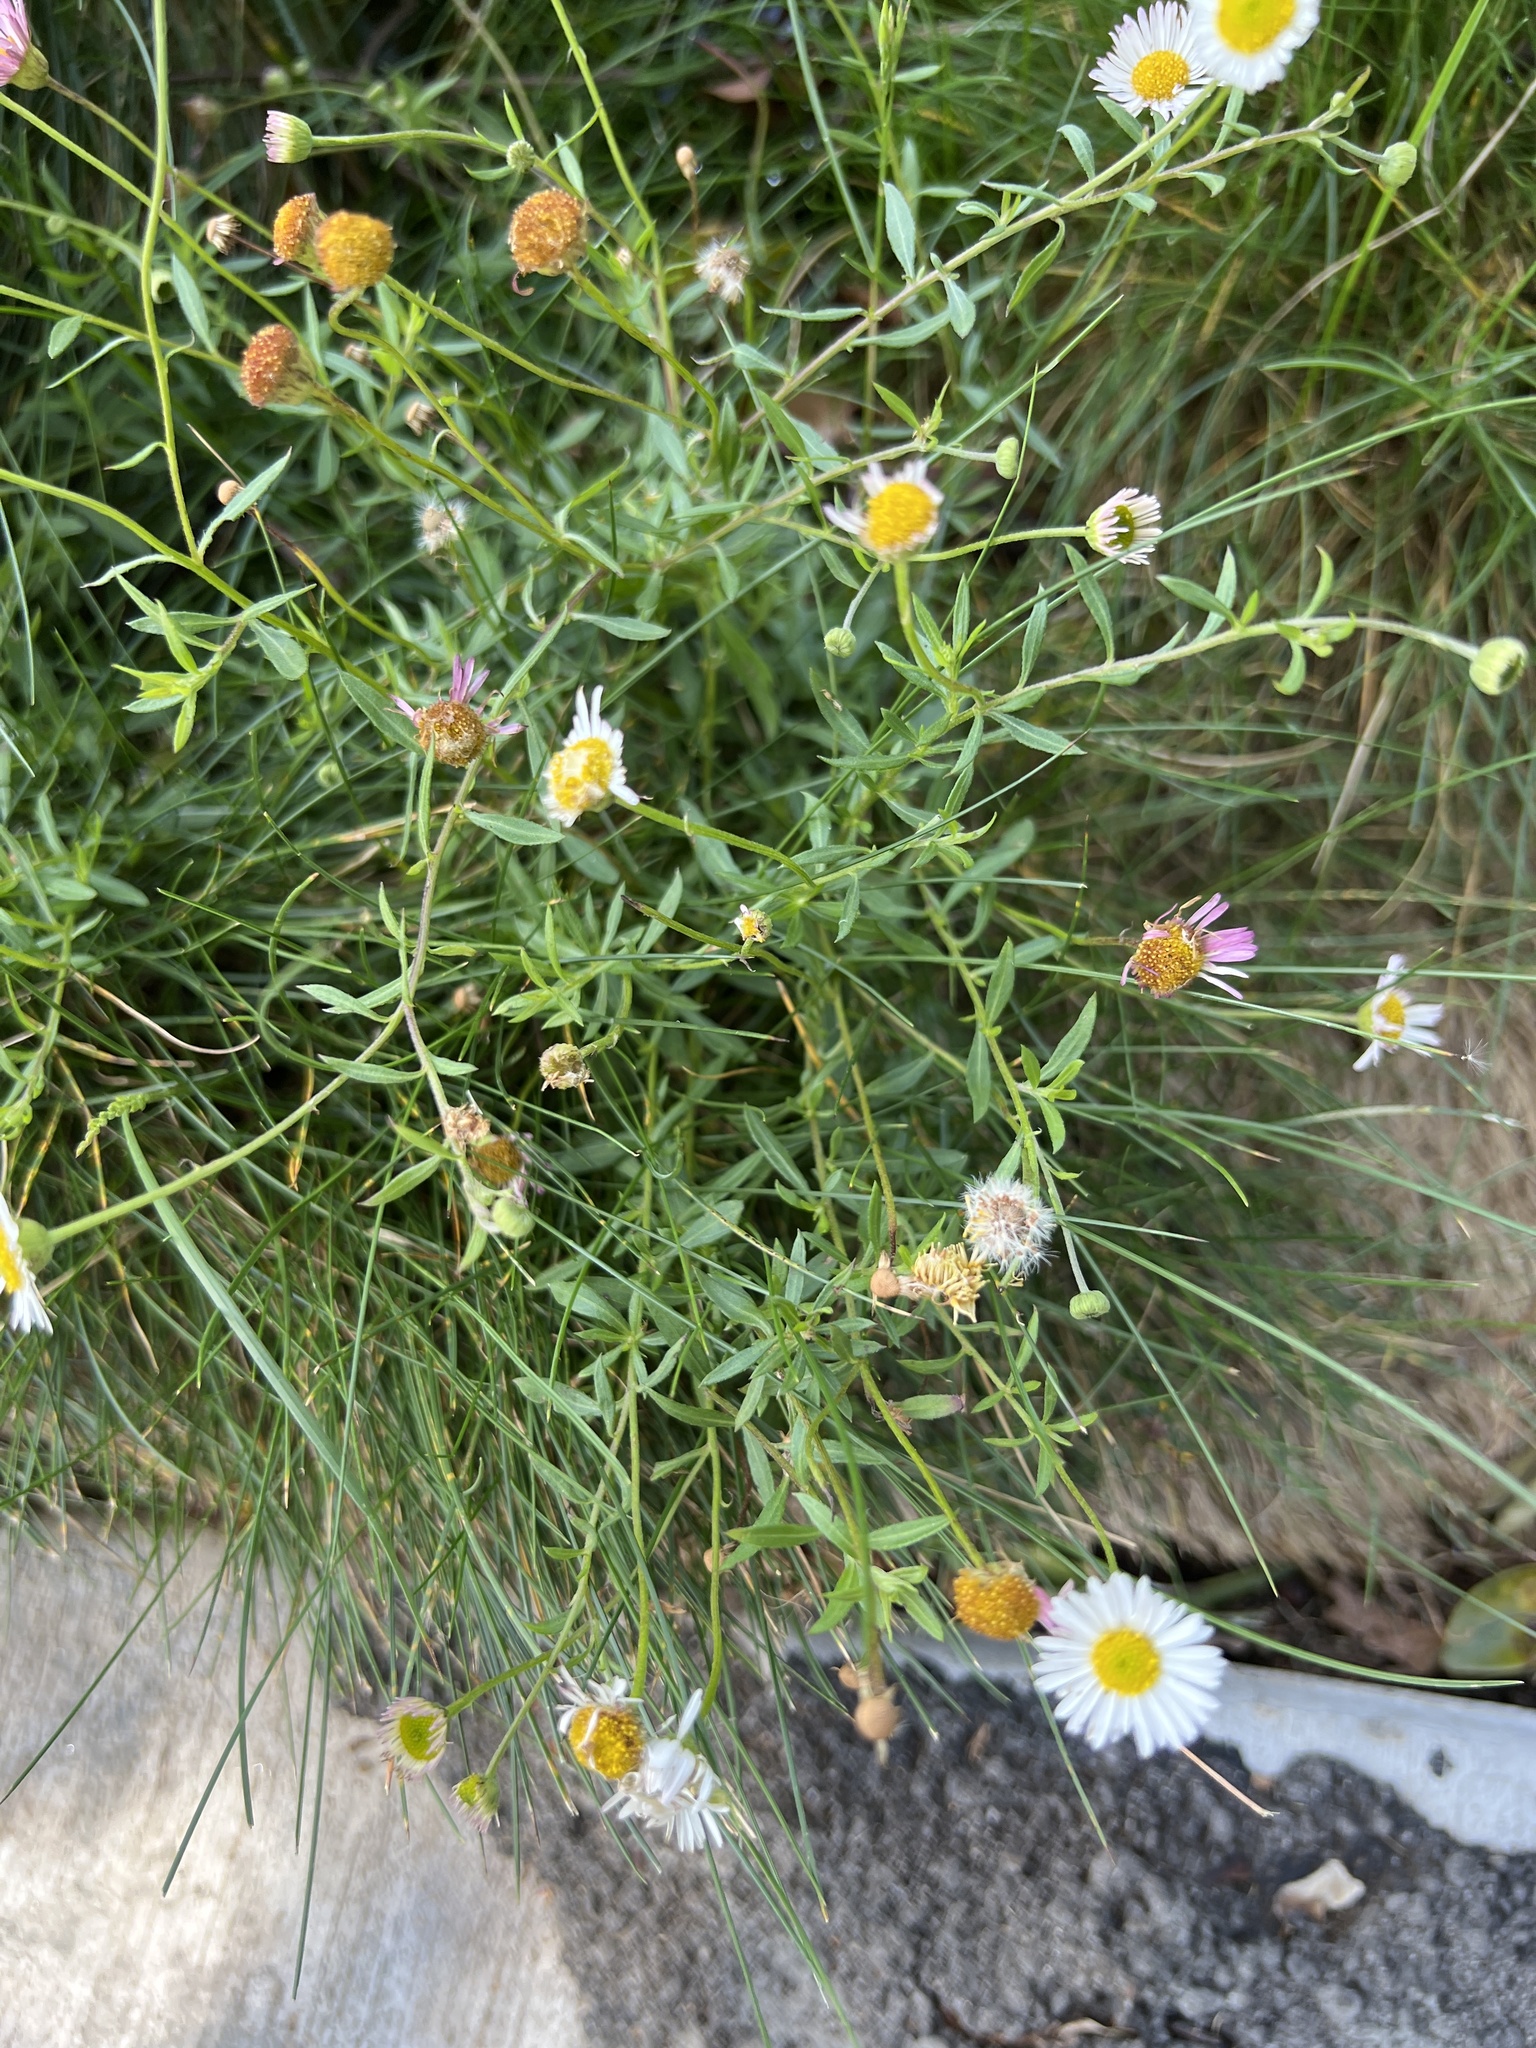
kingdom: Plantae
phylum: Tracheophyta
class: Magnoliopsida
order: Asterales
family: Asteraceae
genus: Erigeron
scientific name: Erigeron karvinskianus
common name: Mexican fleabane
